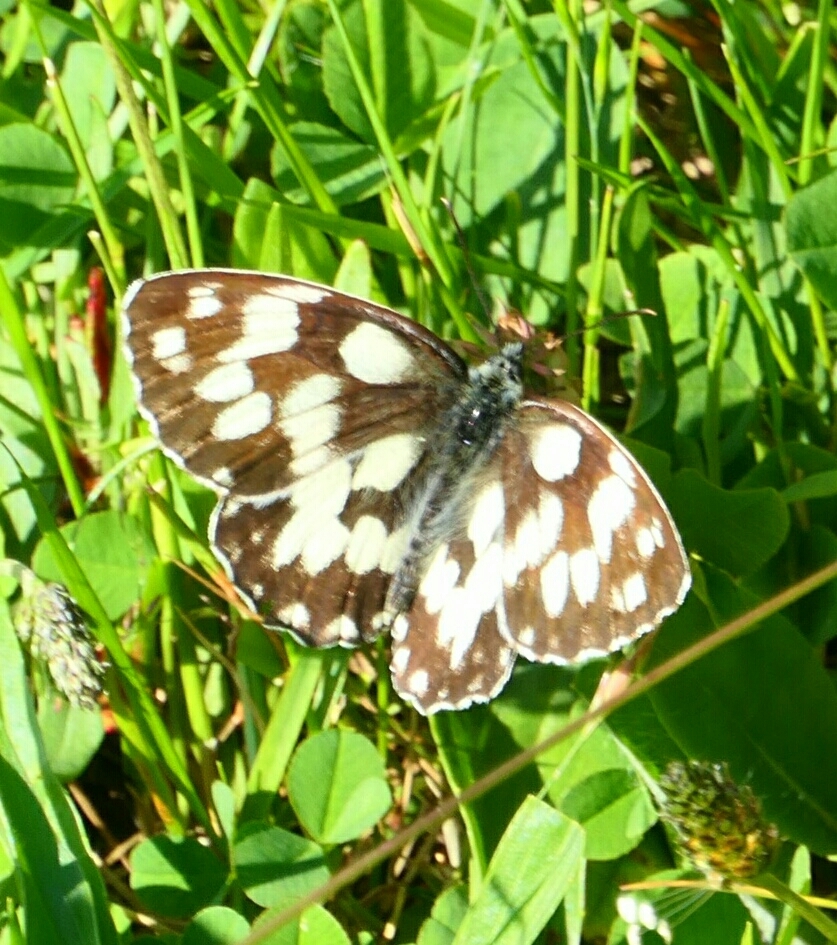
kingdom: Animalia
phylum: Arthropoda
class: Insecta
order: Lepidoptera
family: Nymphalidae
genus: Melanargia
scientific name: Melanargia galathea
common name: Marbled white
